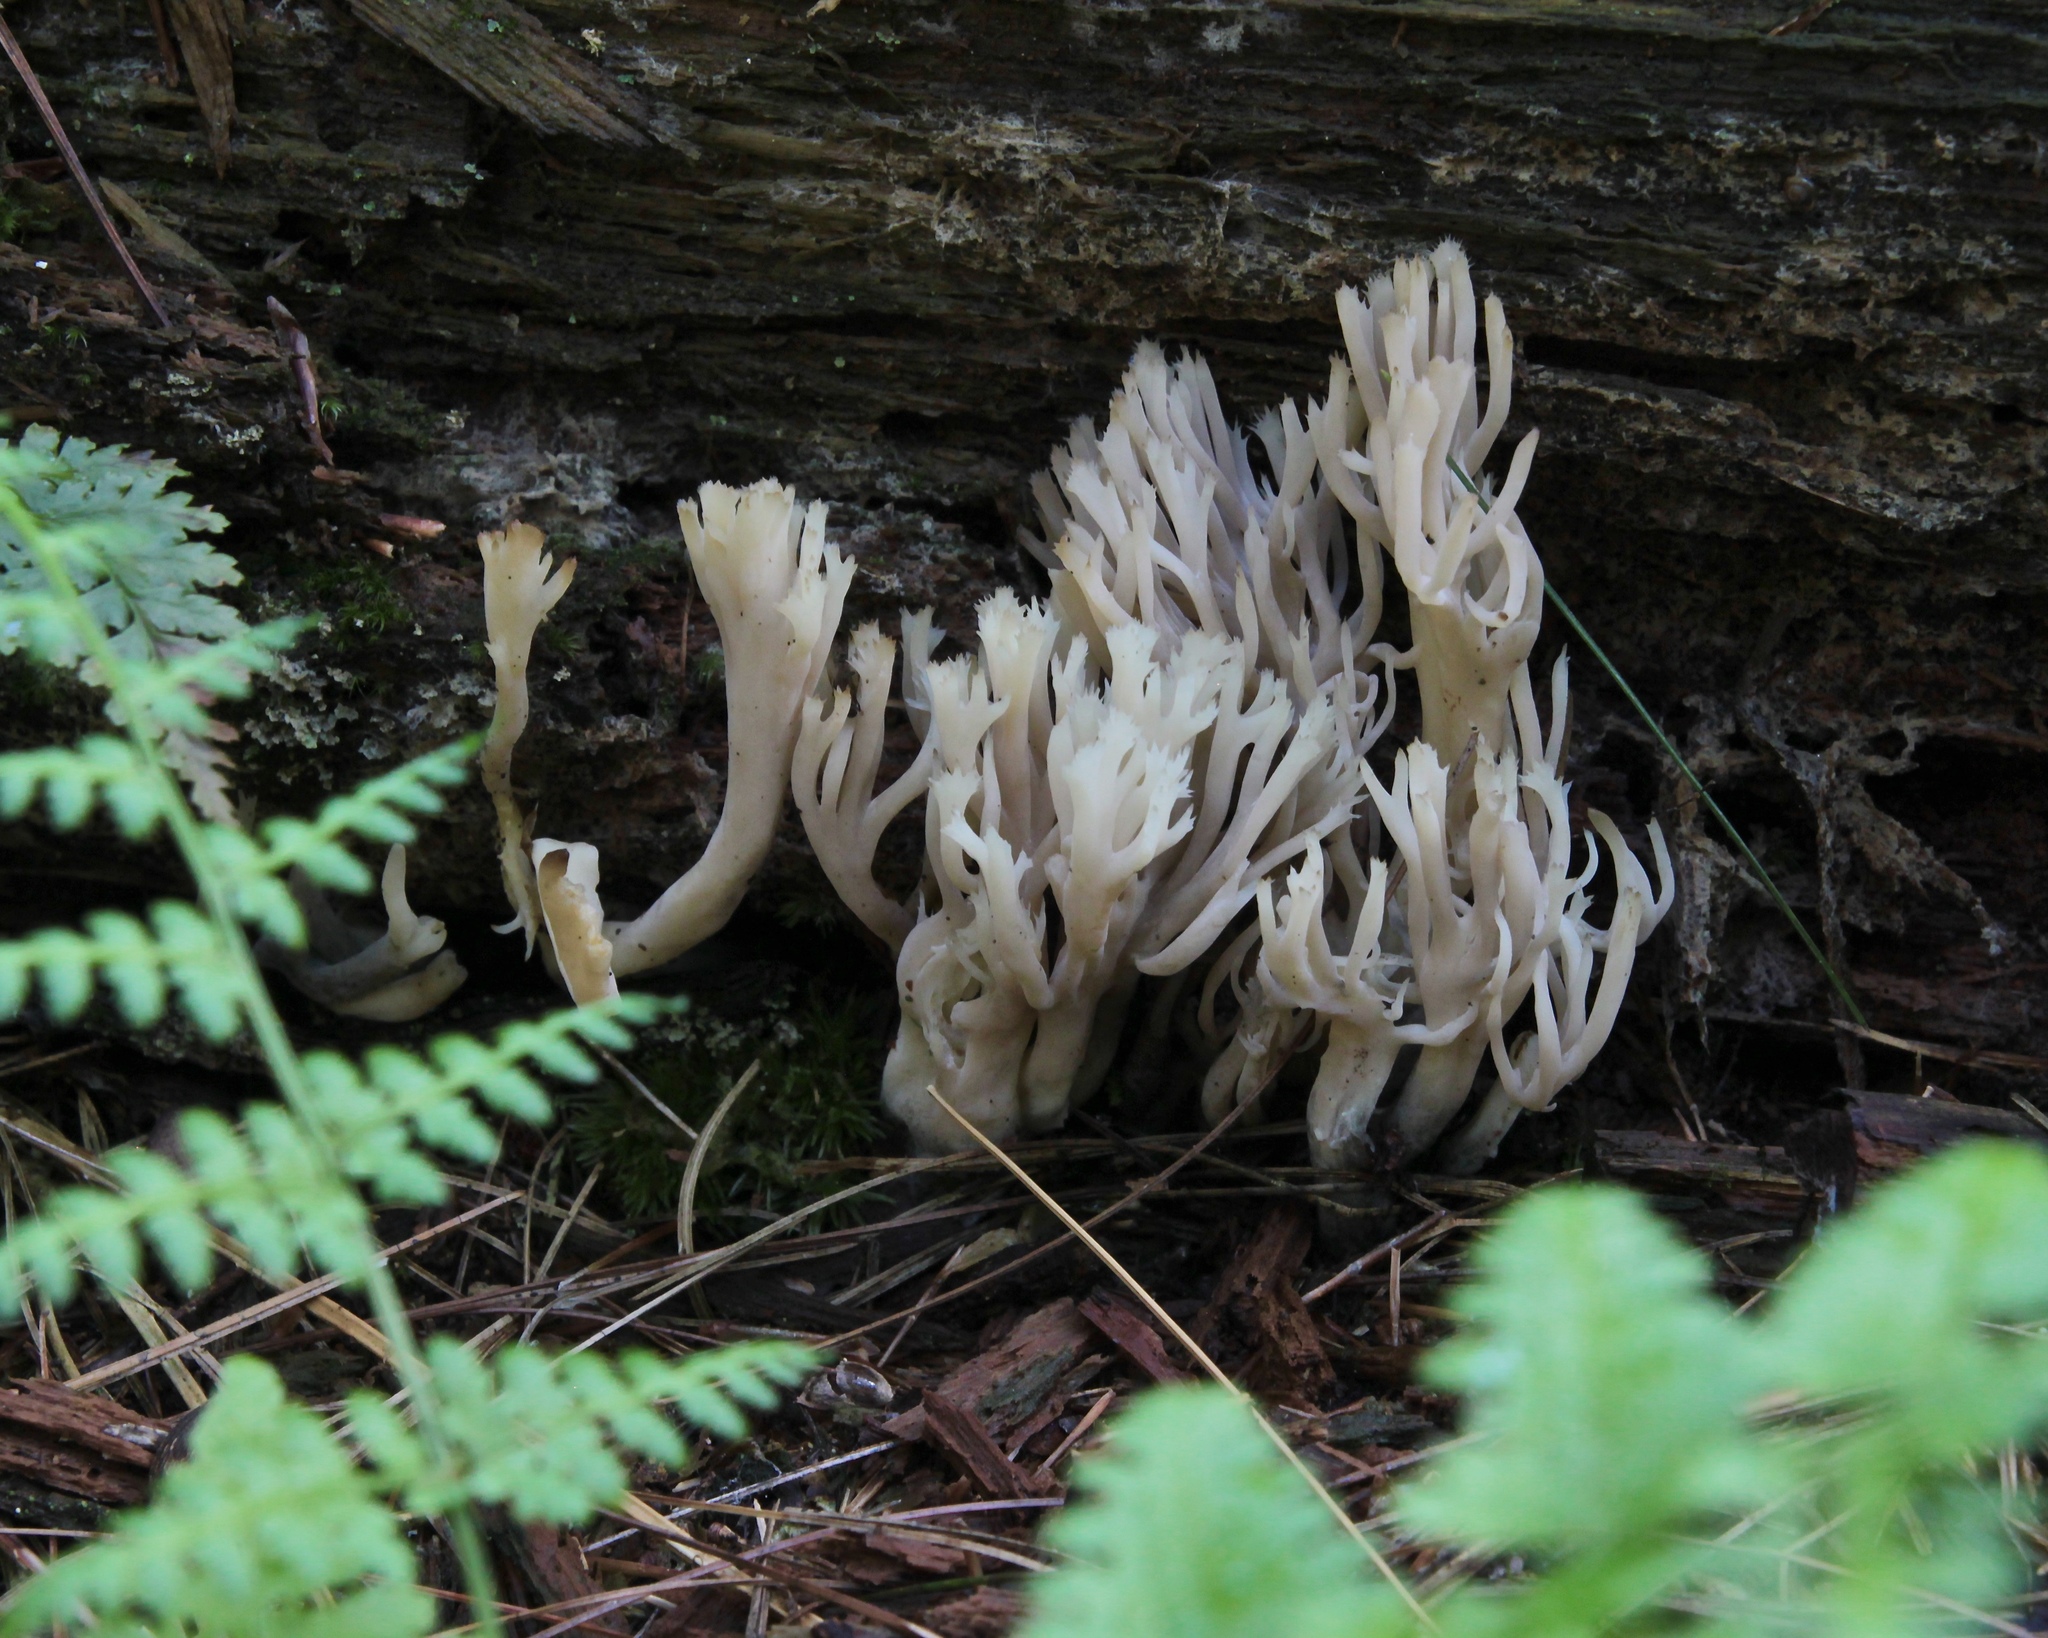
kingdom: Fungi
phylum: Basidiomycota
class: Agaricomycetes
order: Cantharellales
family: Hydnaceae
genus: Clavulina
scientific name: Clavulina coralloides
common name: Crested coral
